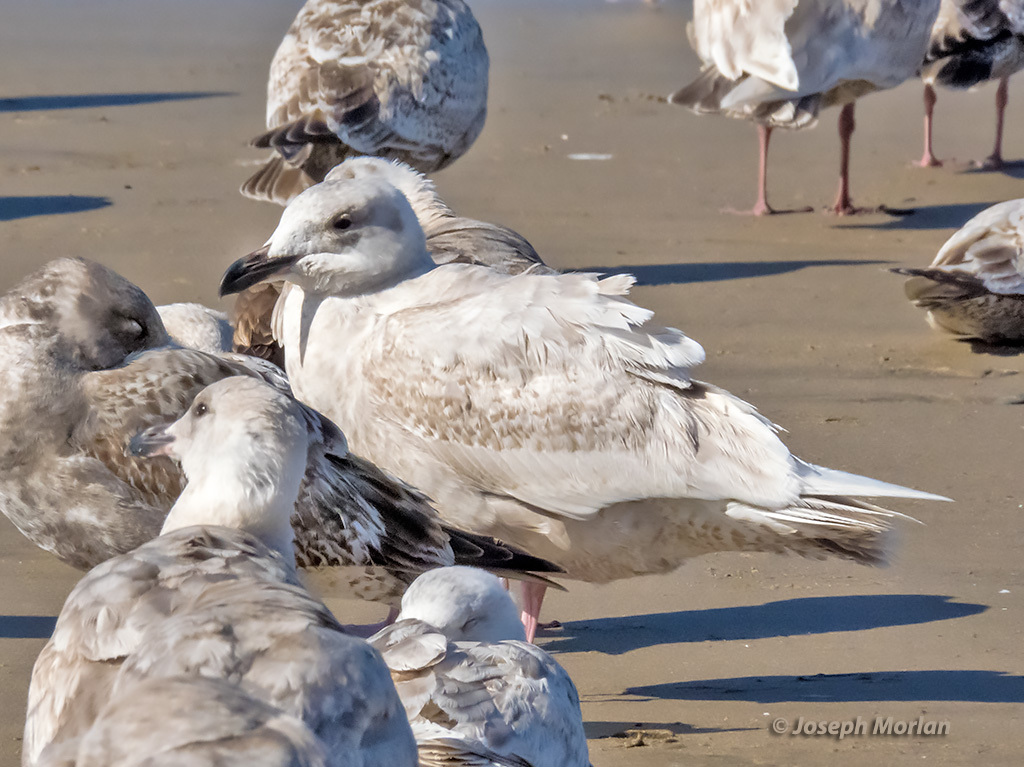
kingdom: Animalia
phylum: Chordata
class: Aves
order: Charadriiformes
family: Laridae
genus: Larus
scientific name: Larus glaucescens
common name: Glaucous-winged gull
